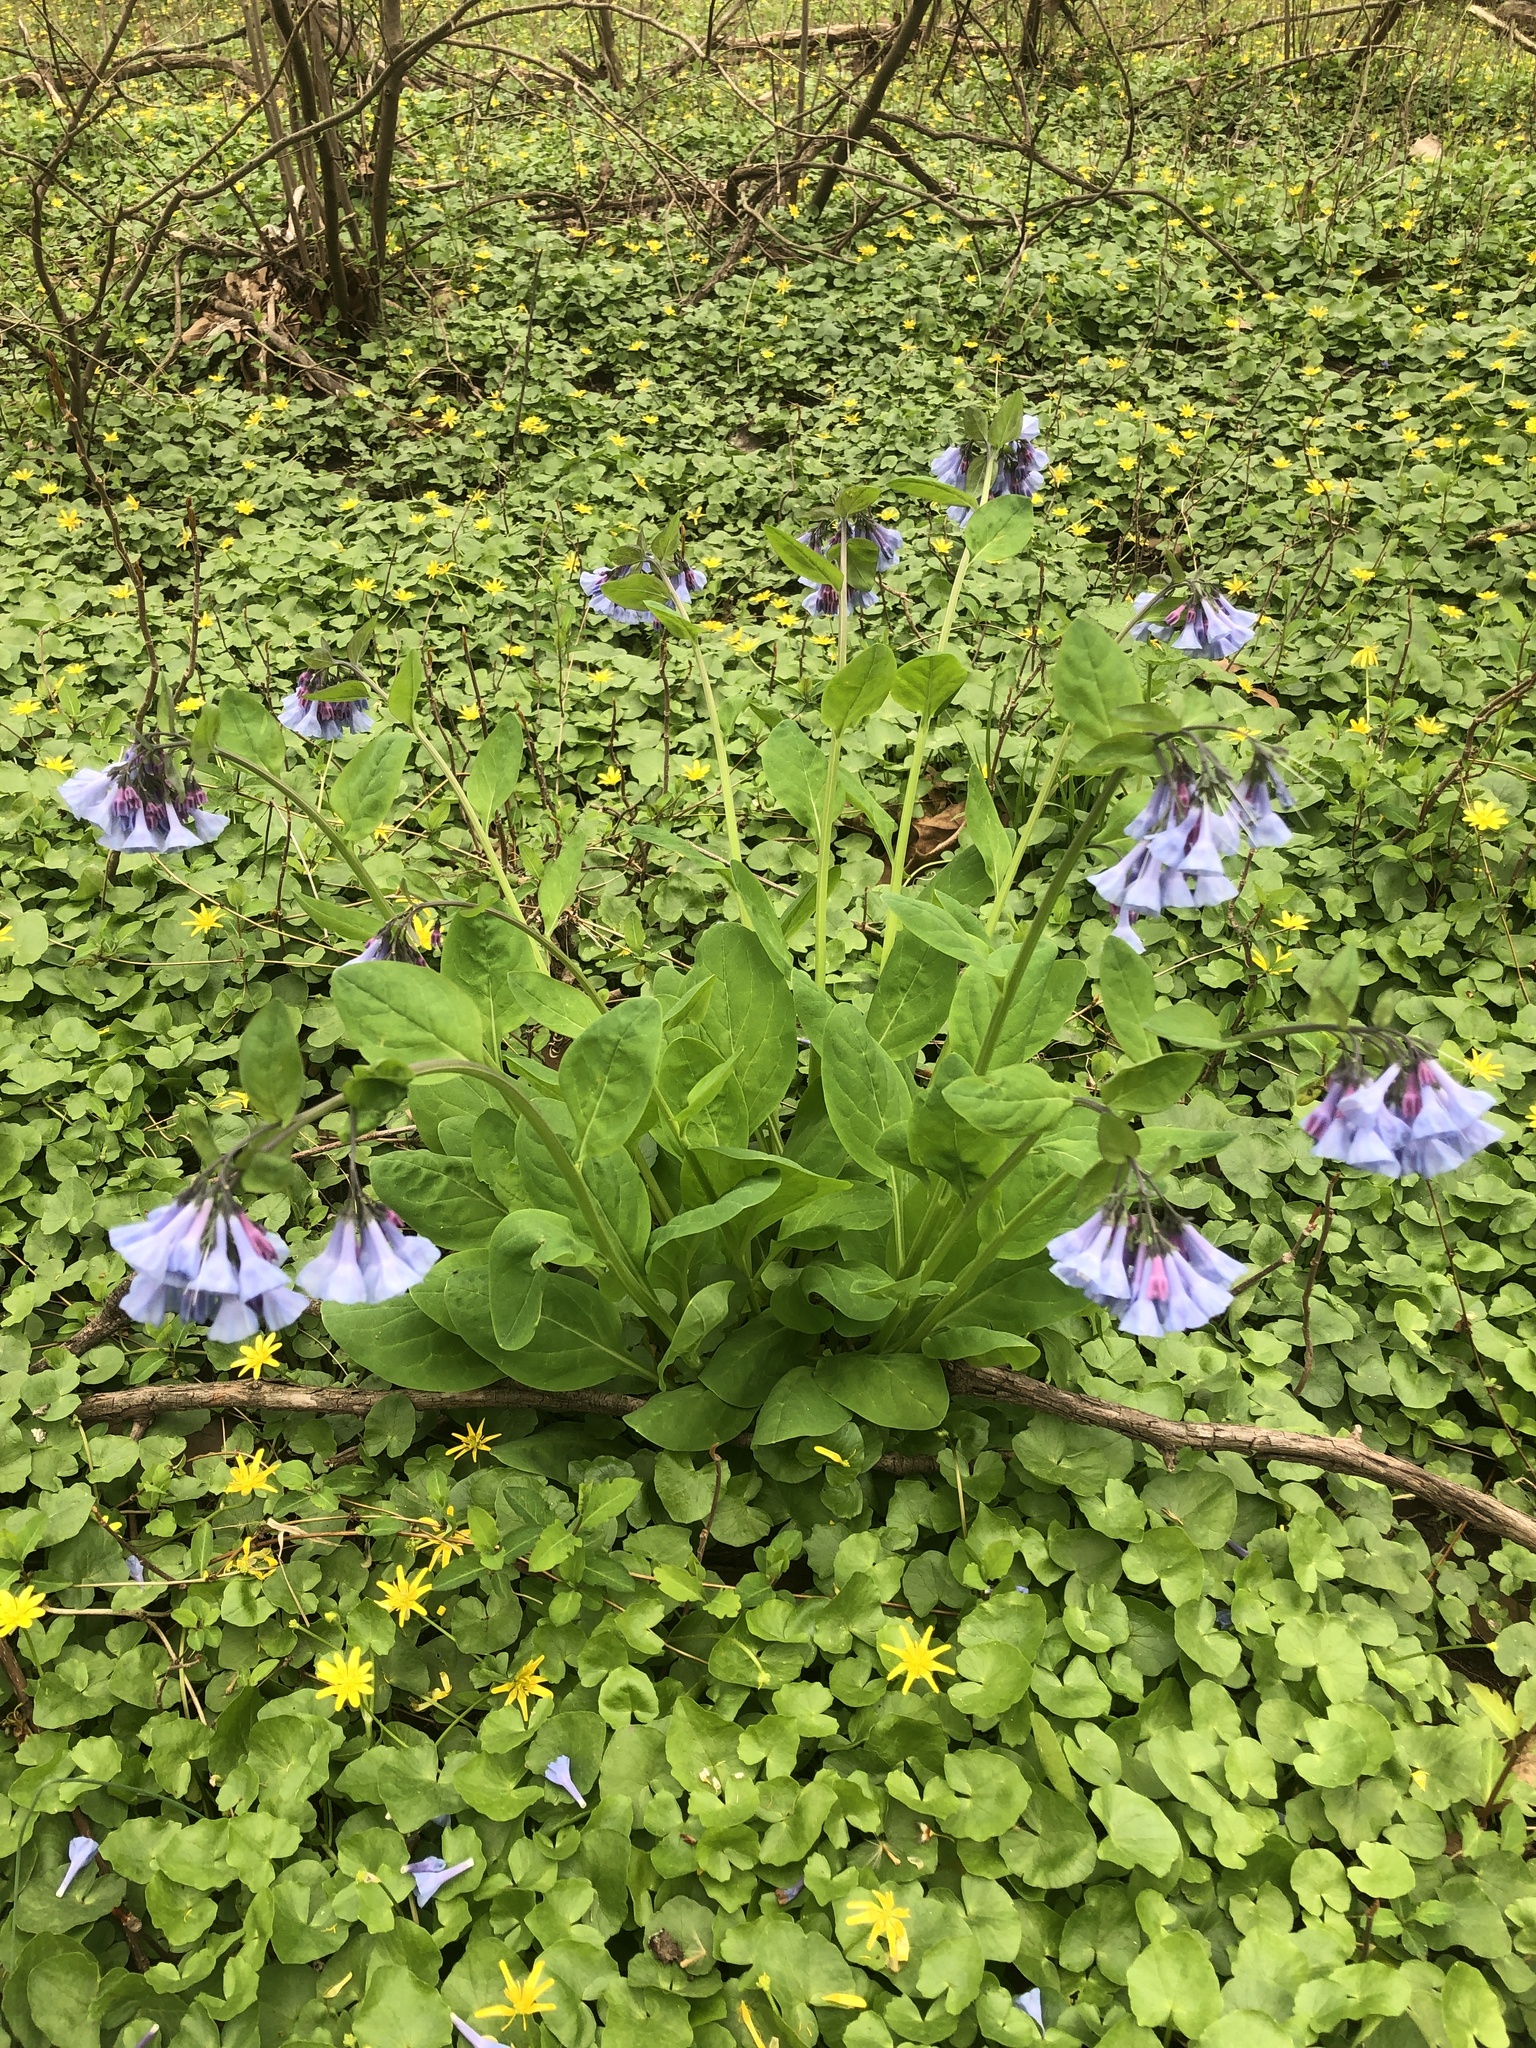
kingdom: Plantae
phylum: Tracheophyta
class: Magnoliopsida
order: Boraginales
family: Boraginaceae
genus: Mertensia
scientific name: Mertensia virginica
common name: Virginia bluebells
